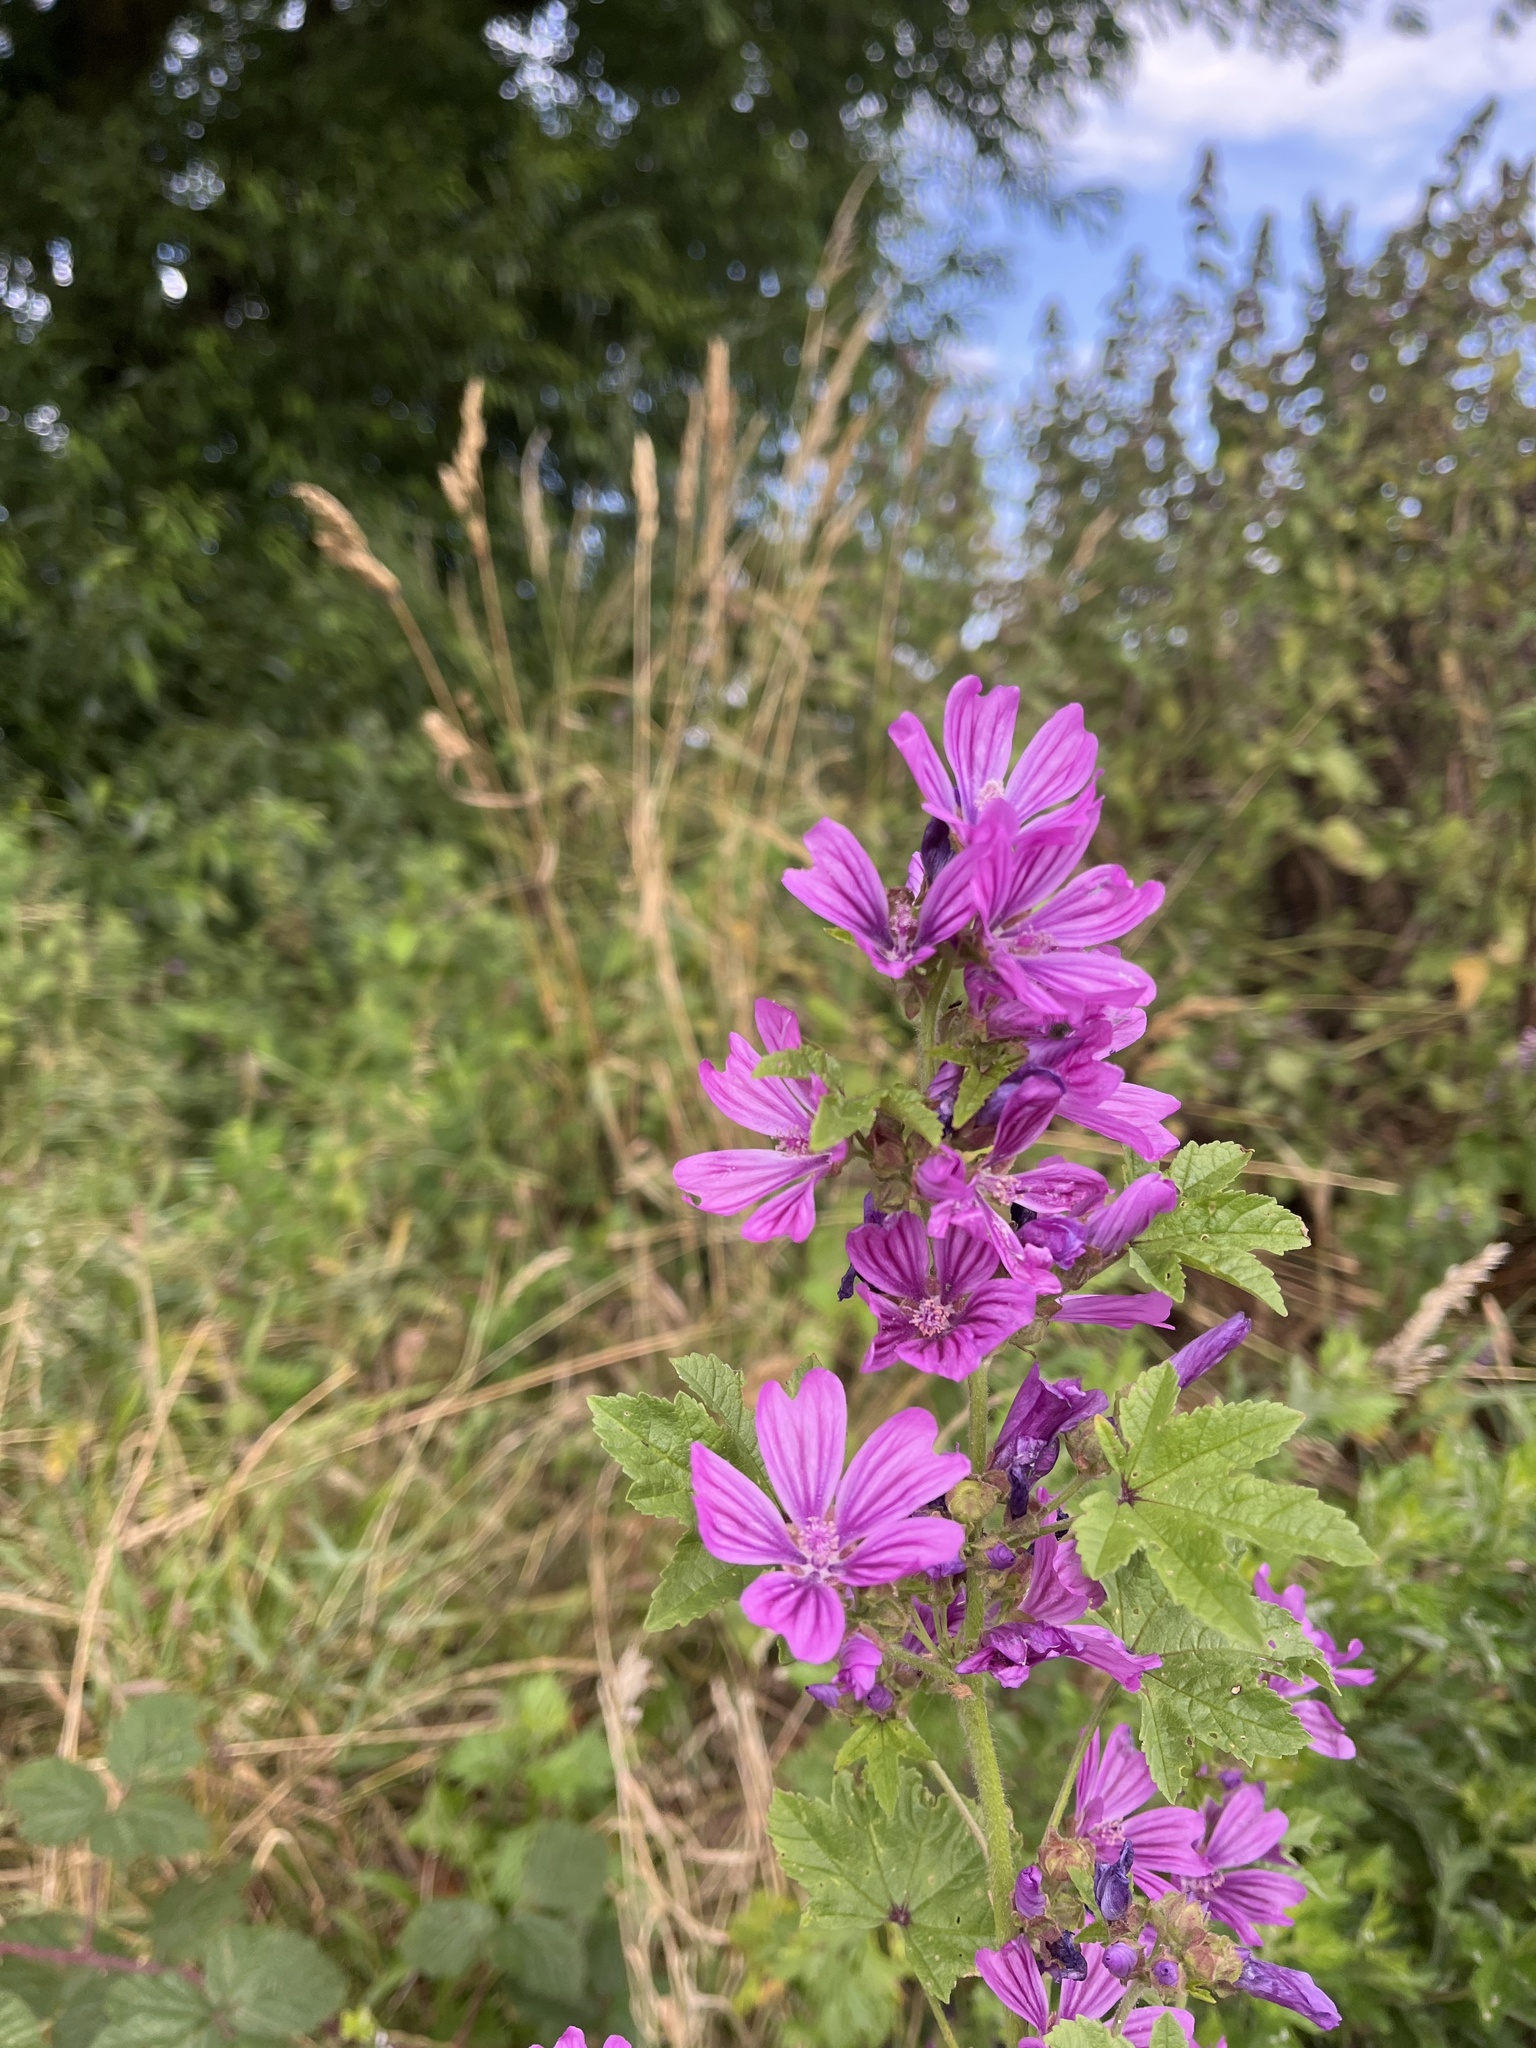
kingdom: Plantae
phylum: Tracheophyta
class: Magnoliopsida
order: Malvales
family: Malvaceae
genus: Malva
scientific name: Malva sylvestris
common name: Common mallow
